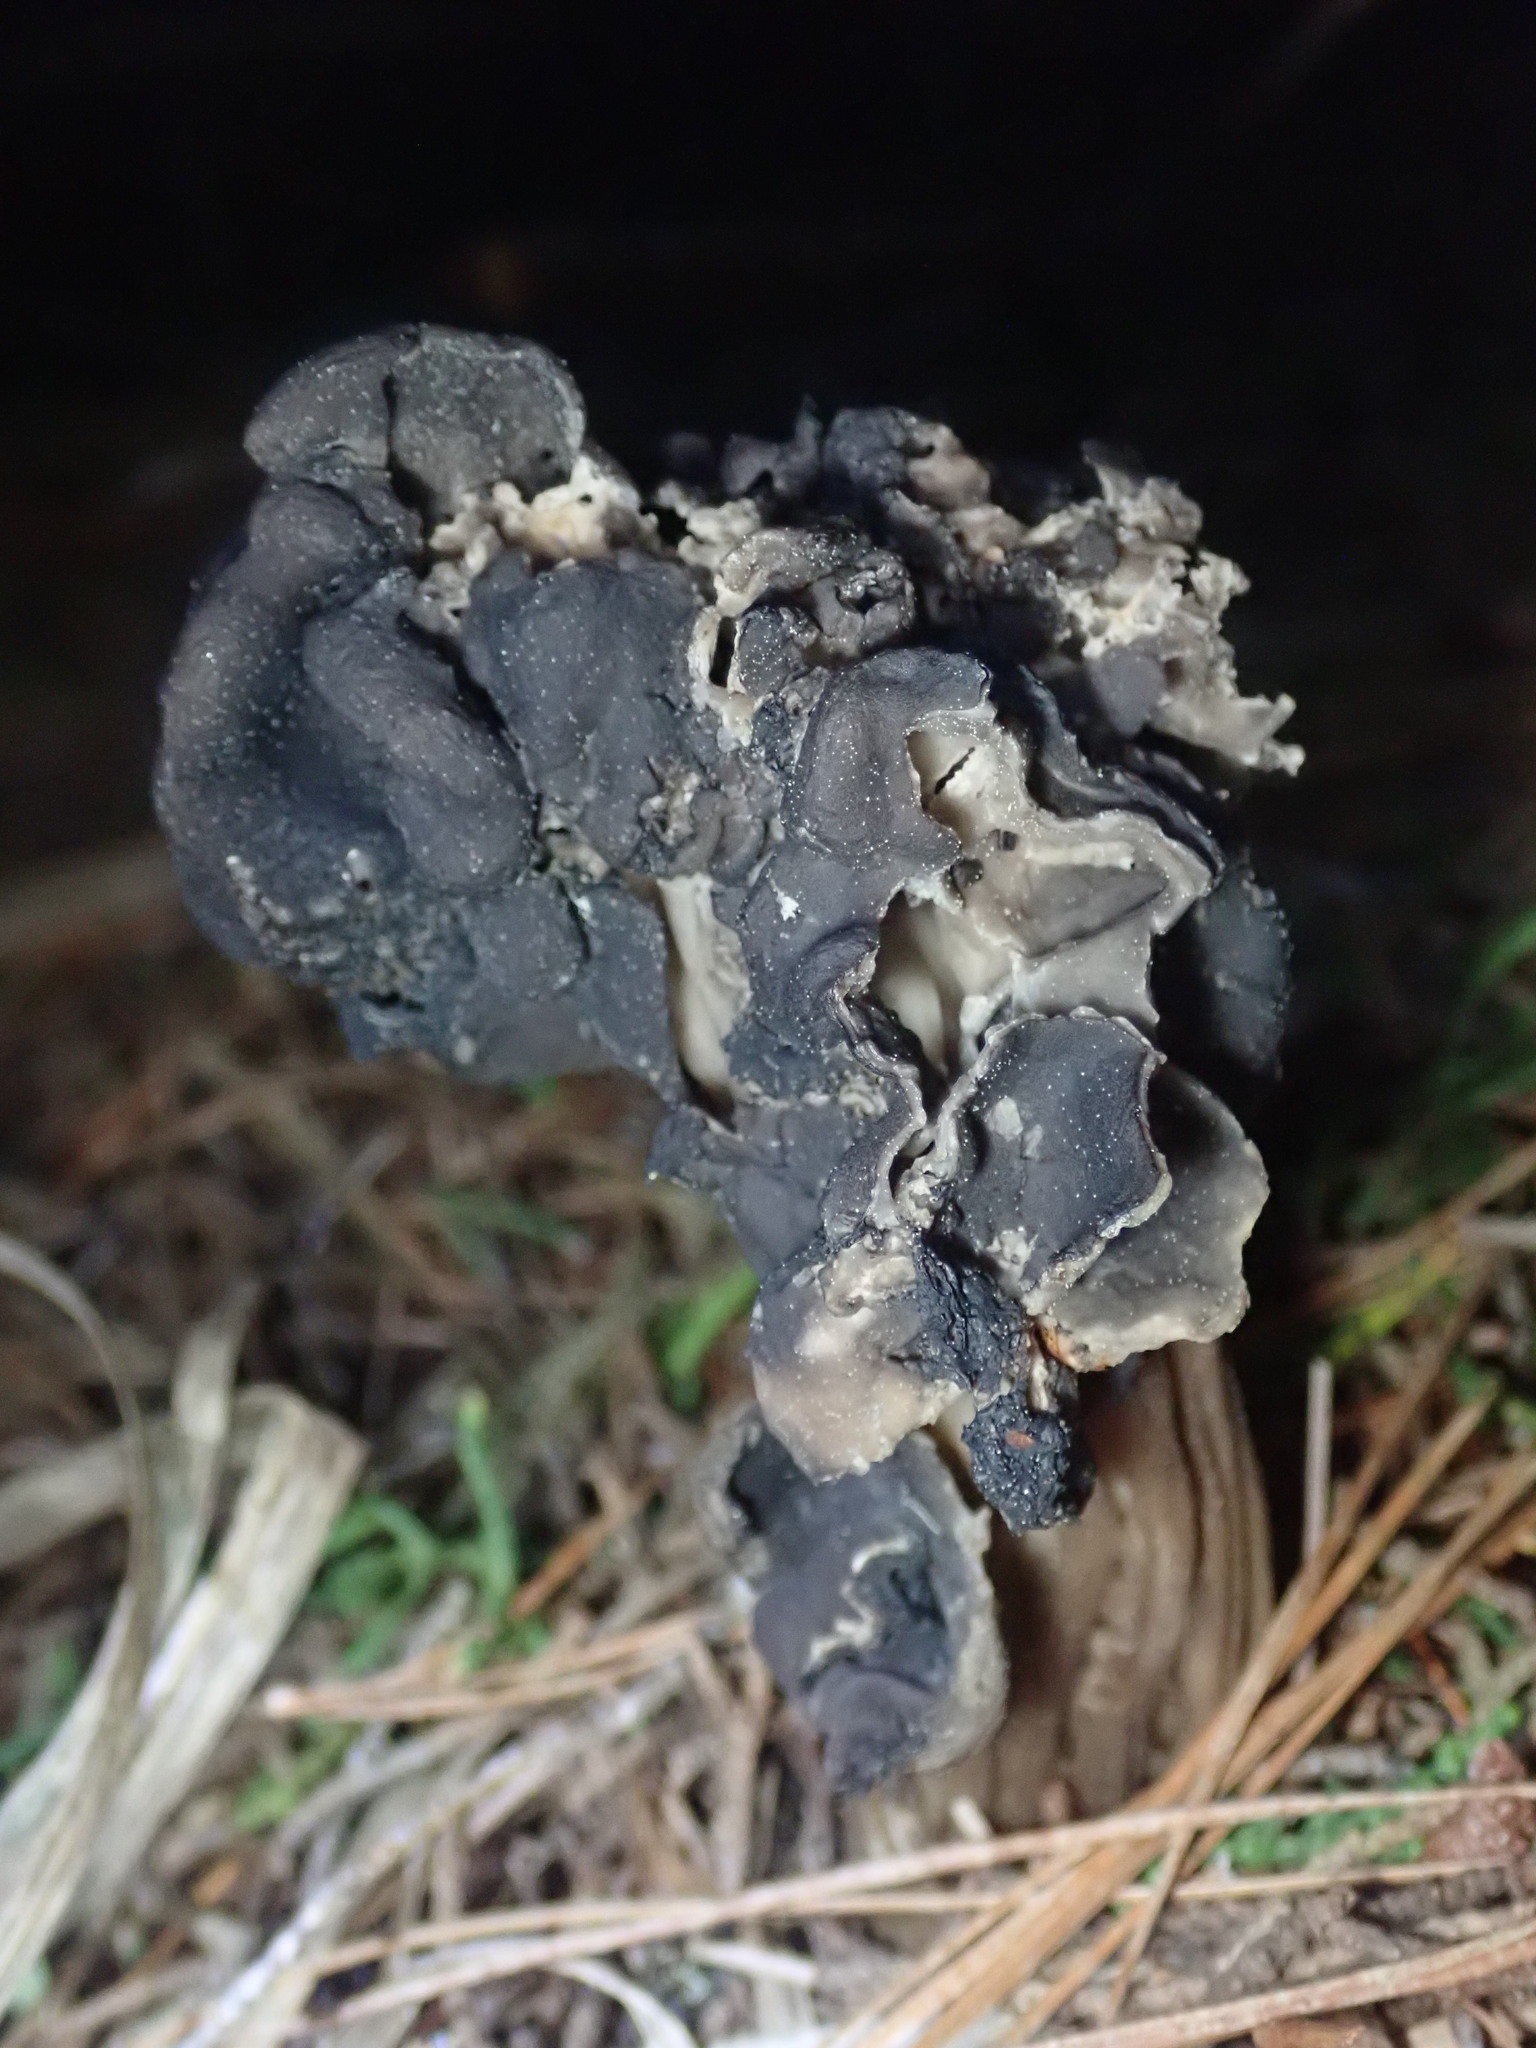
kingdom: Fungi
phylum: Ascomycota
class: Pezizomycetes
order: Pezizales
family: Helvellaceae
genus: Helvella
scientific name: Helvella vespertina
